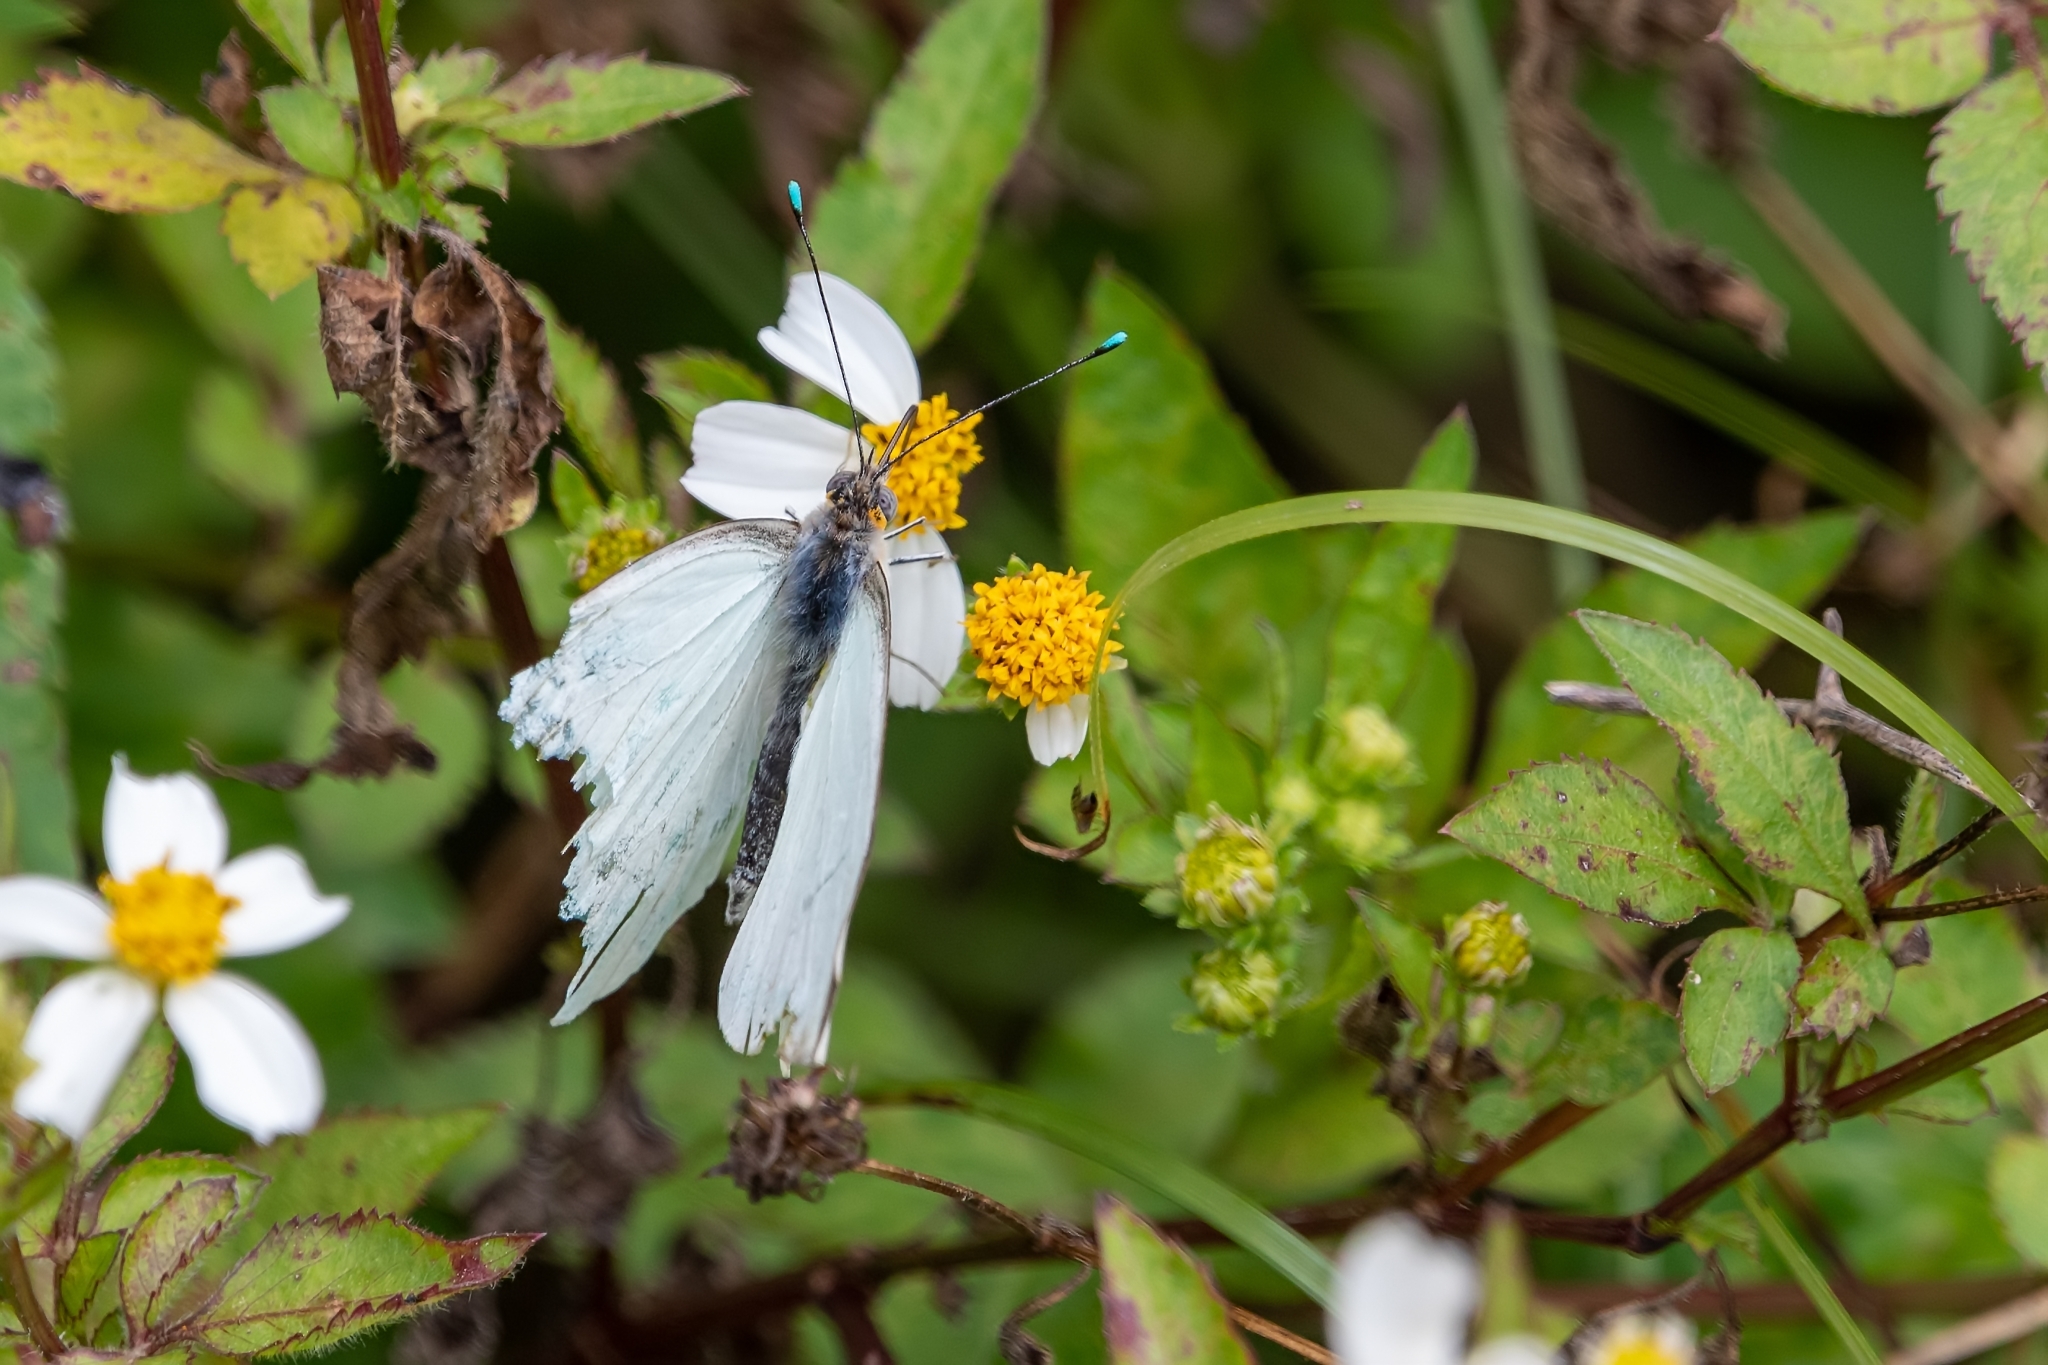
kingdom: Animalia
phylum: Arthropoda
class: Insecta
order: Lepidoptera
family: Pieridae
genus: Ascia
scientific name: Ascia monuste
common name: Great southern white
